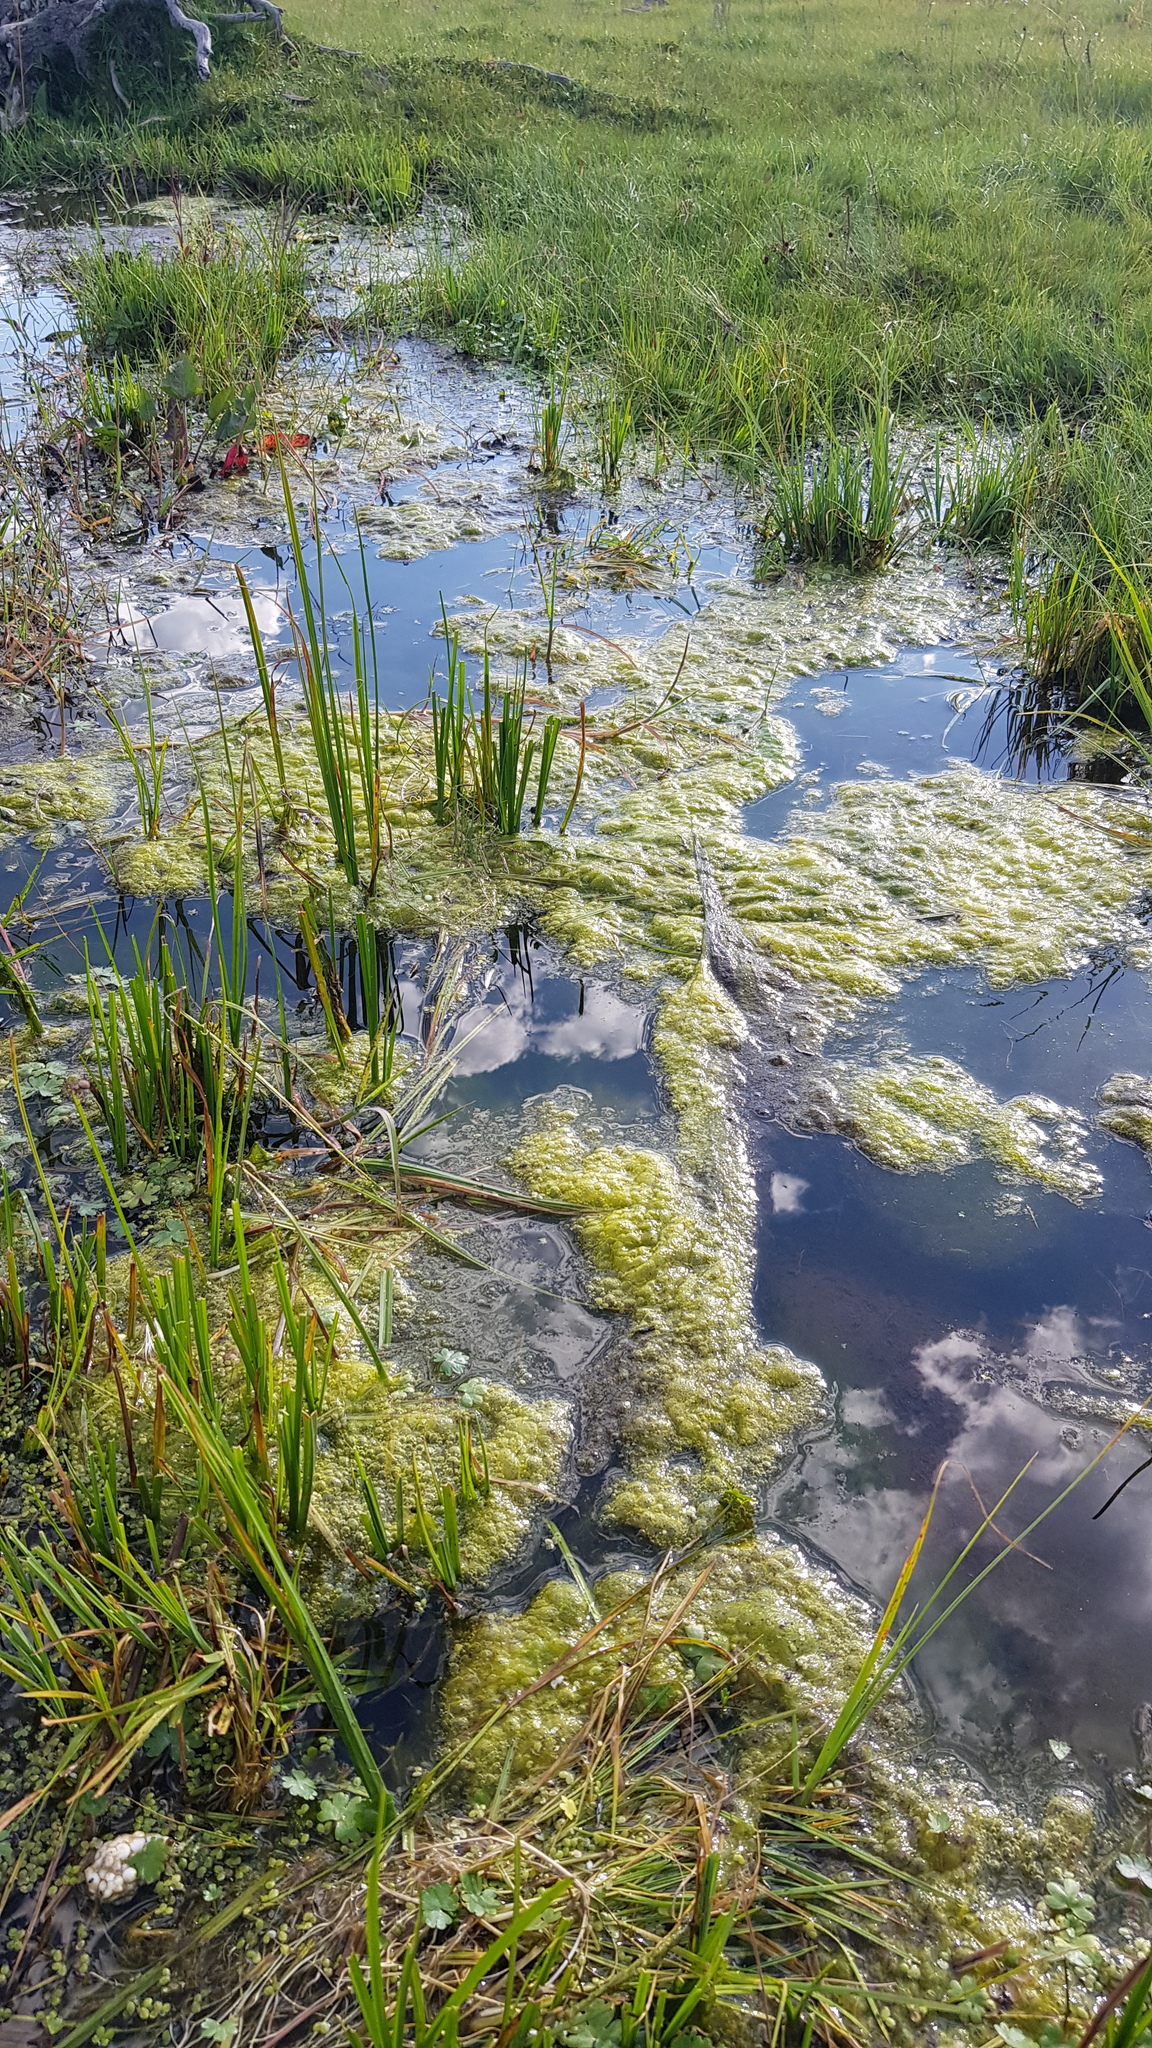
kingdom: Plantae
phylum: Tracheophyta
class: Liliopsida
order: Acorales
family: Acoraceae
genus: Acorus
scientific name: Acorus calamus
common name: Sweet-flag
